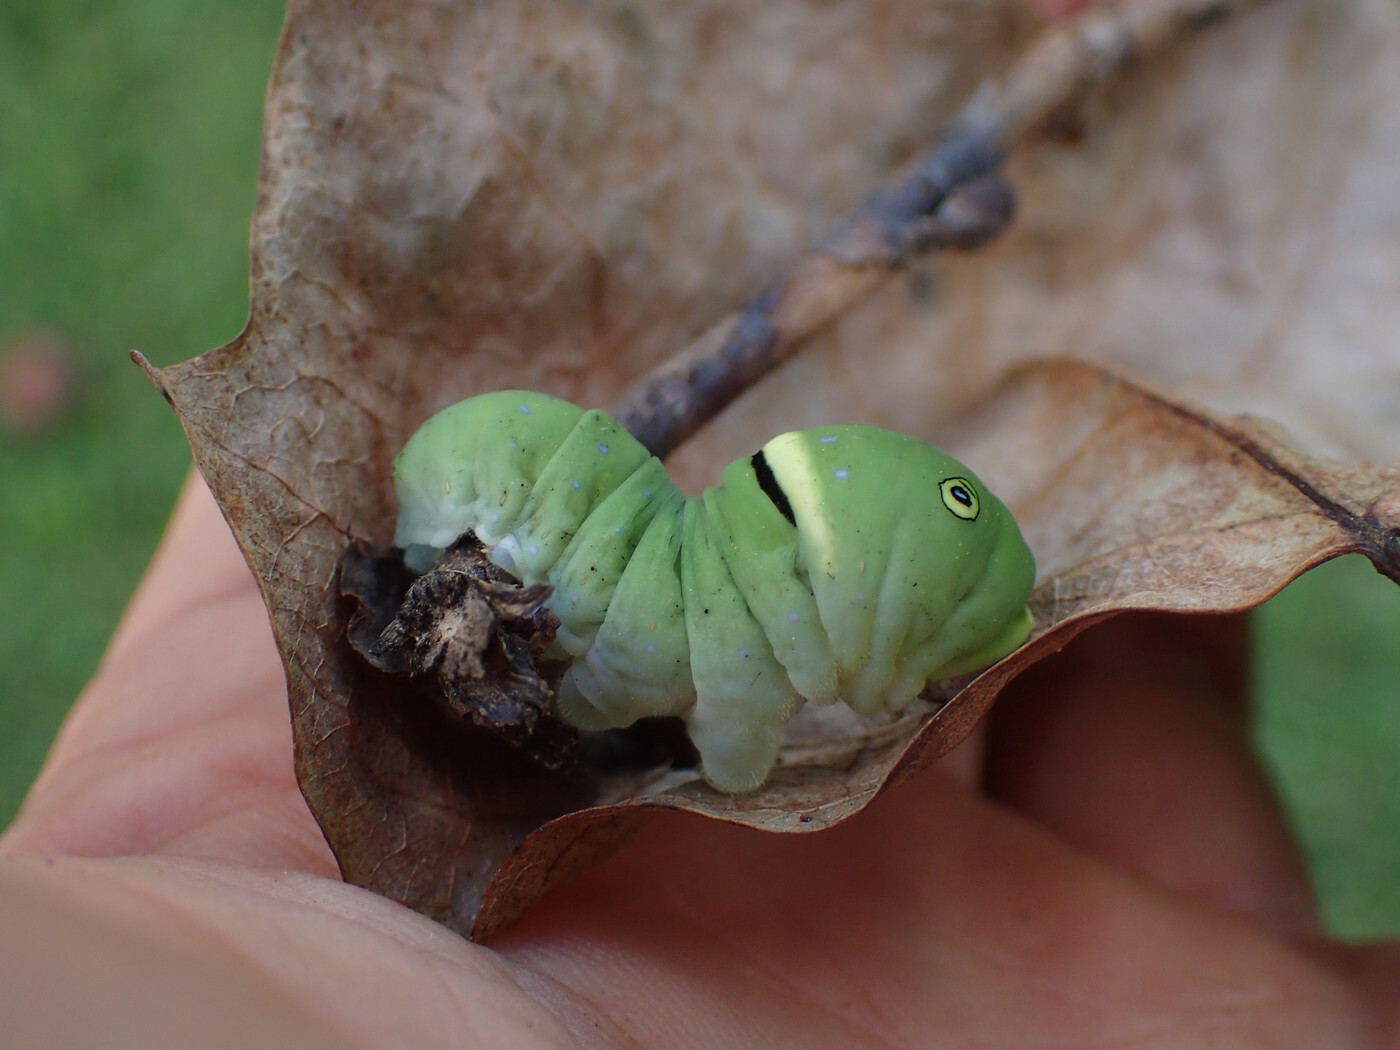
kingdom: Animalia
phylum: Arthropoda
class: Insecta
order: Lepidoptera
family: Papilionidae
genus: Papilio
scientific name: Papilio glaucus
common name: Tiger swallowtail
